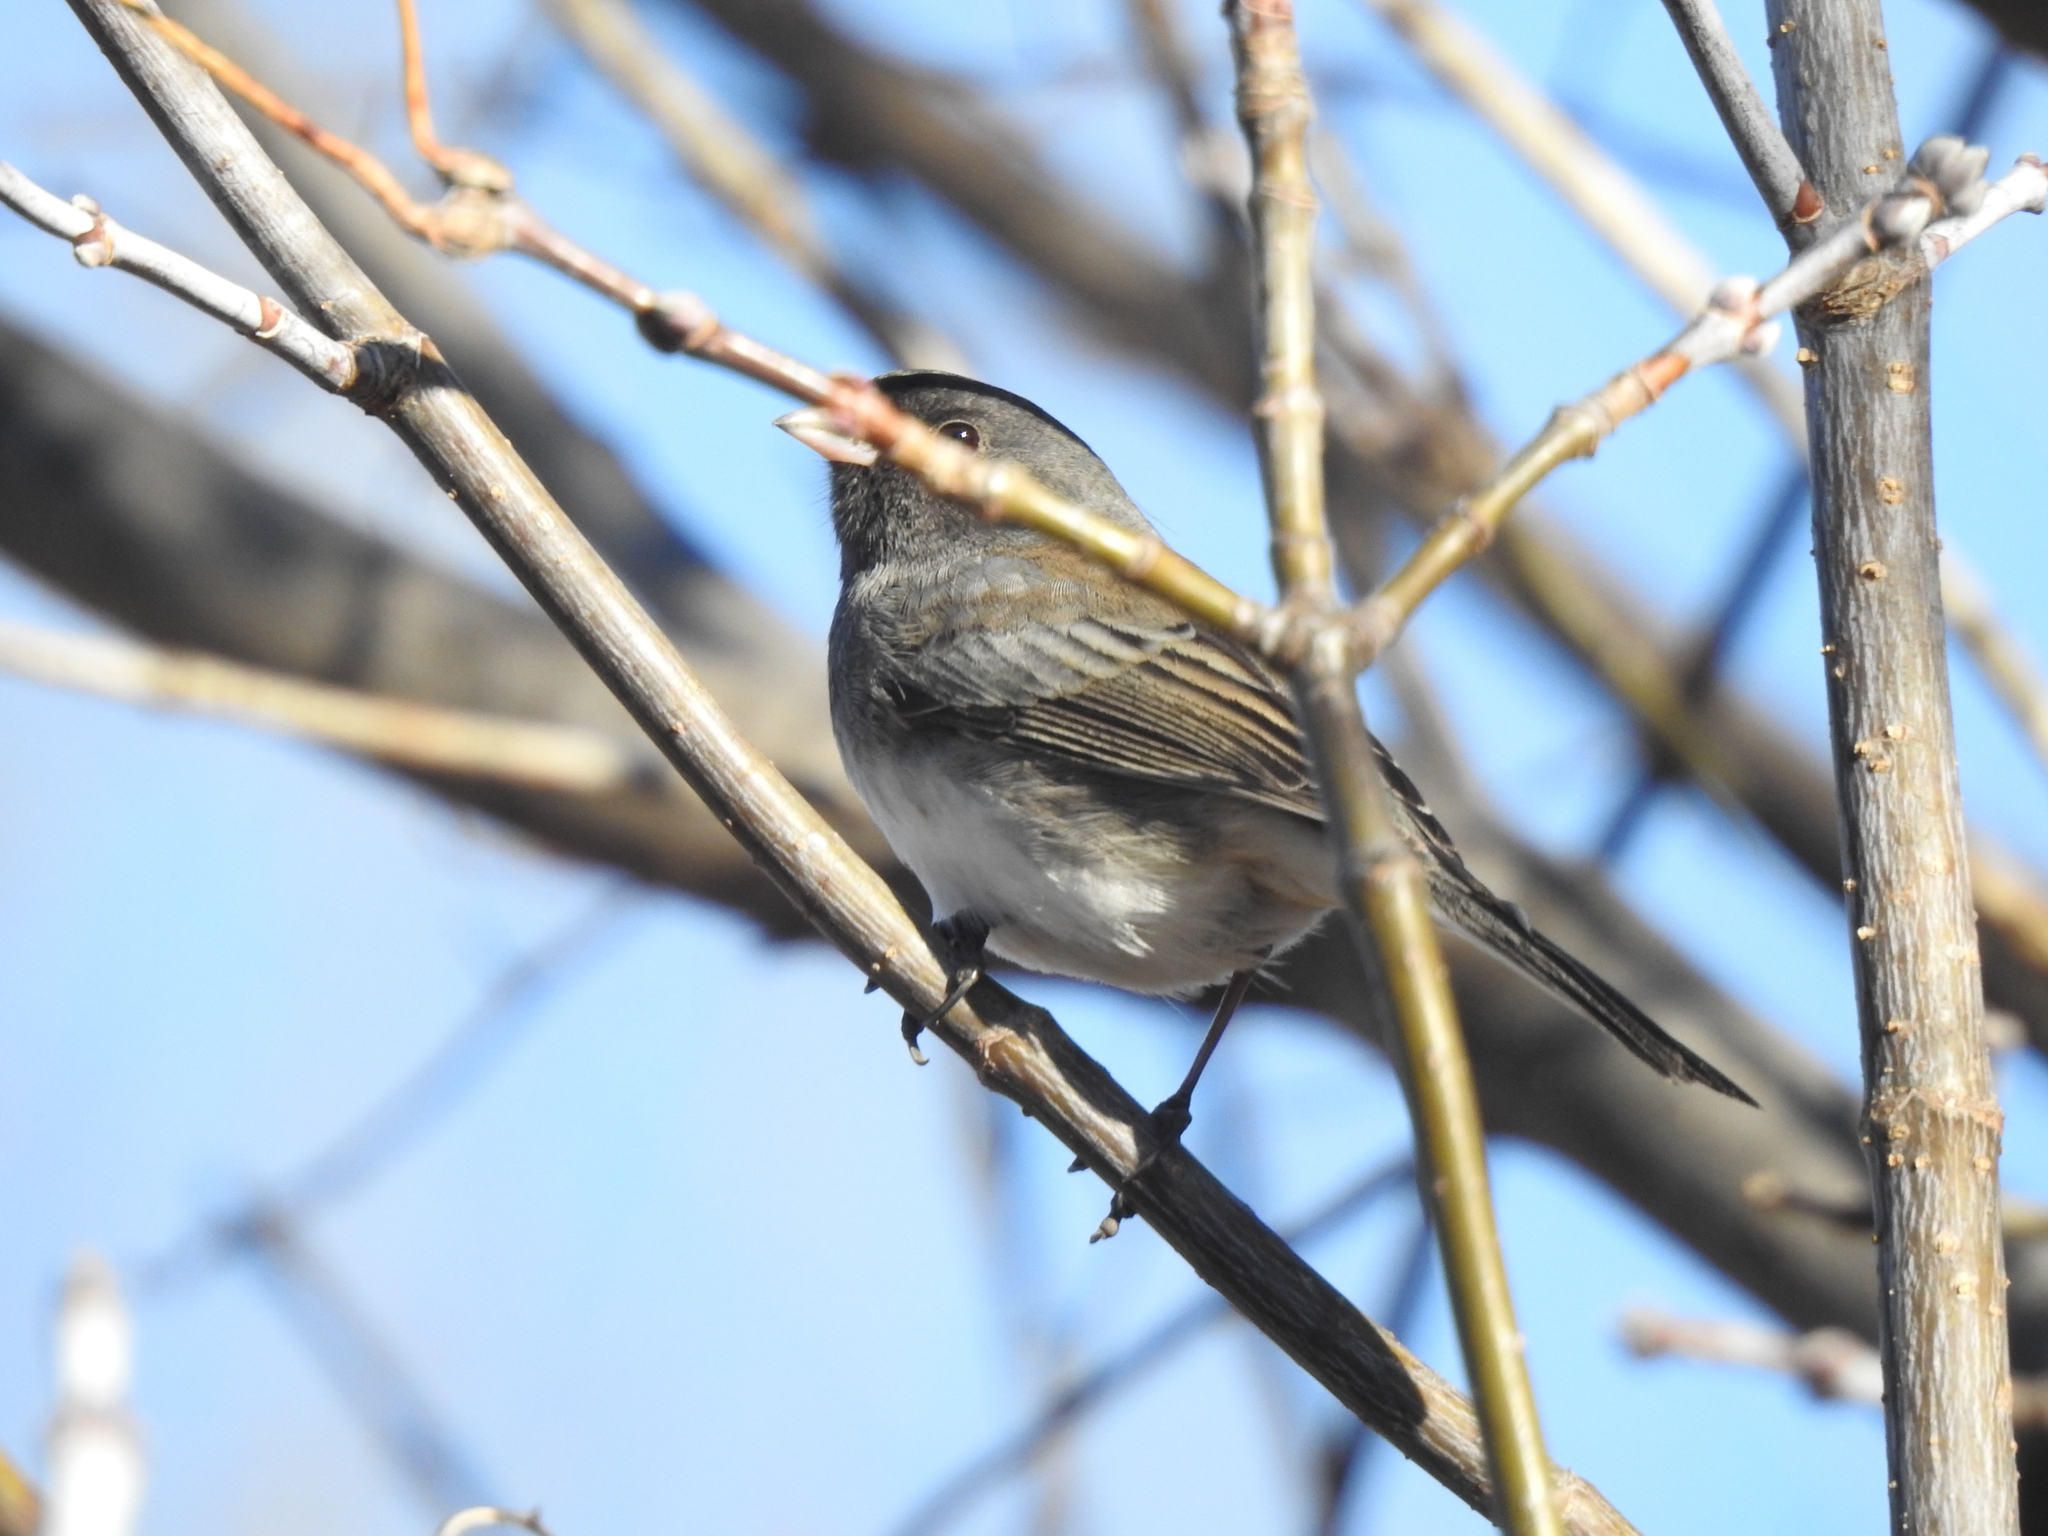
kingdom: Animalia
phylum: Chordata
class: Aves
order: Passeriformes
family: Passerellidae
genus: Junco
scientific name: Junco hyemalis
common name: Dark-eyed junco
